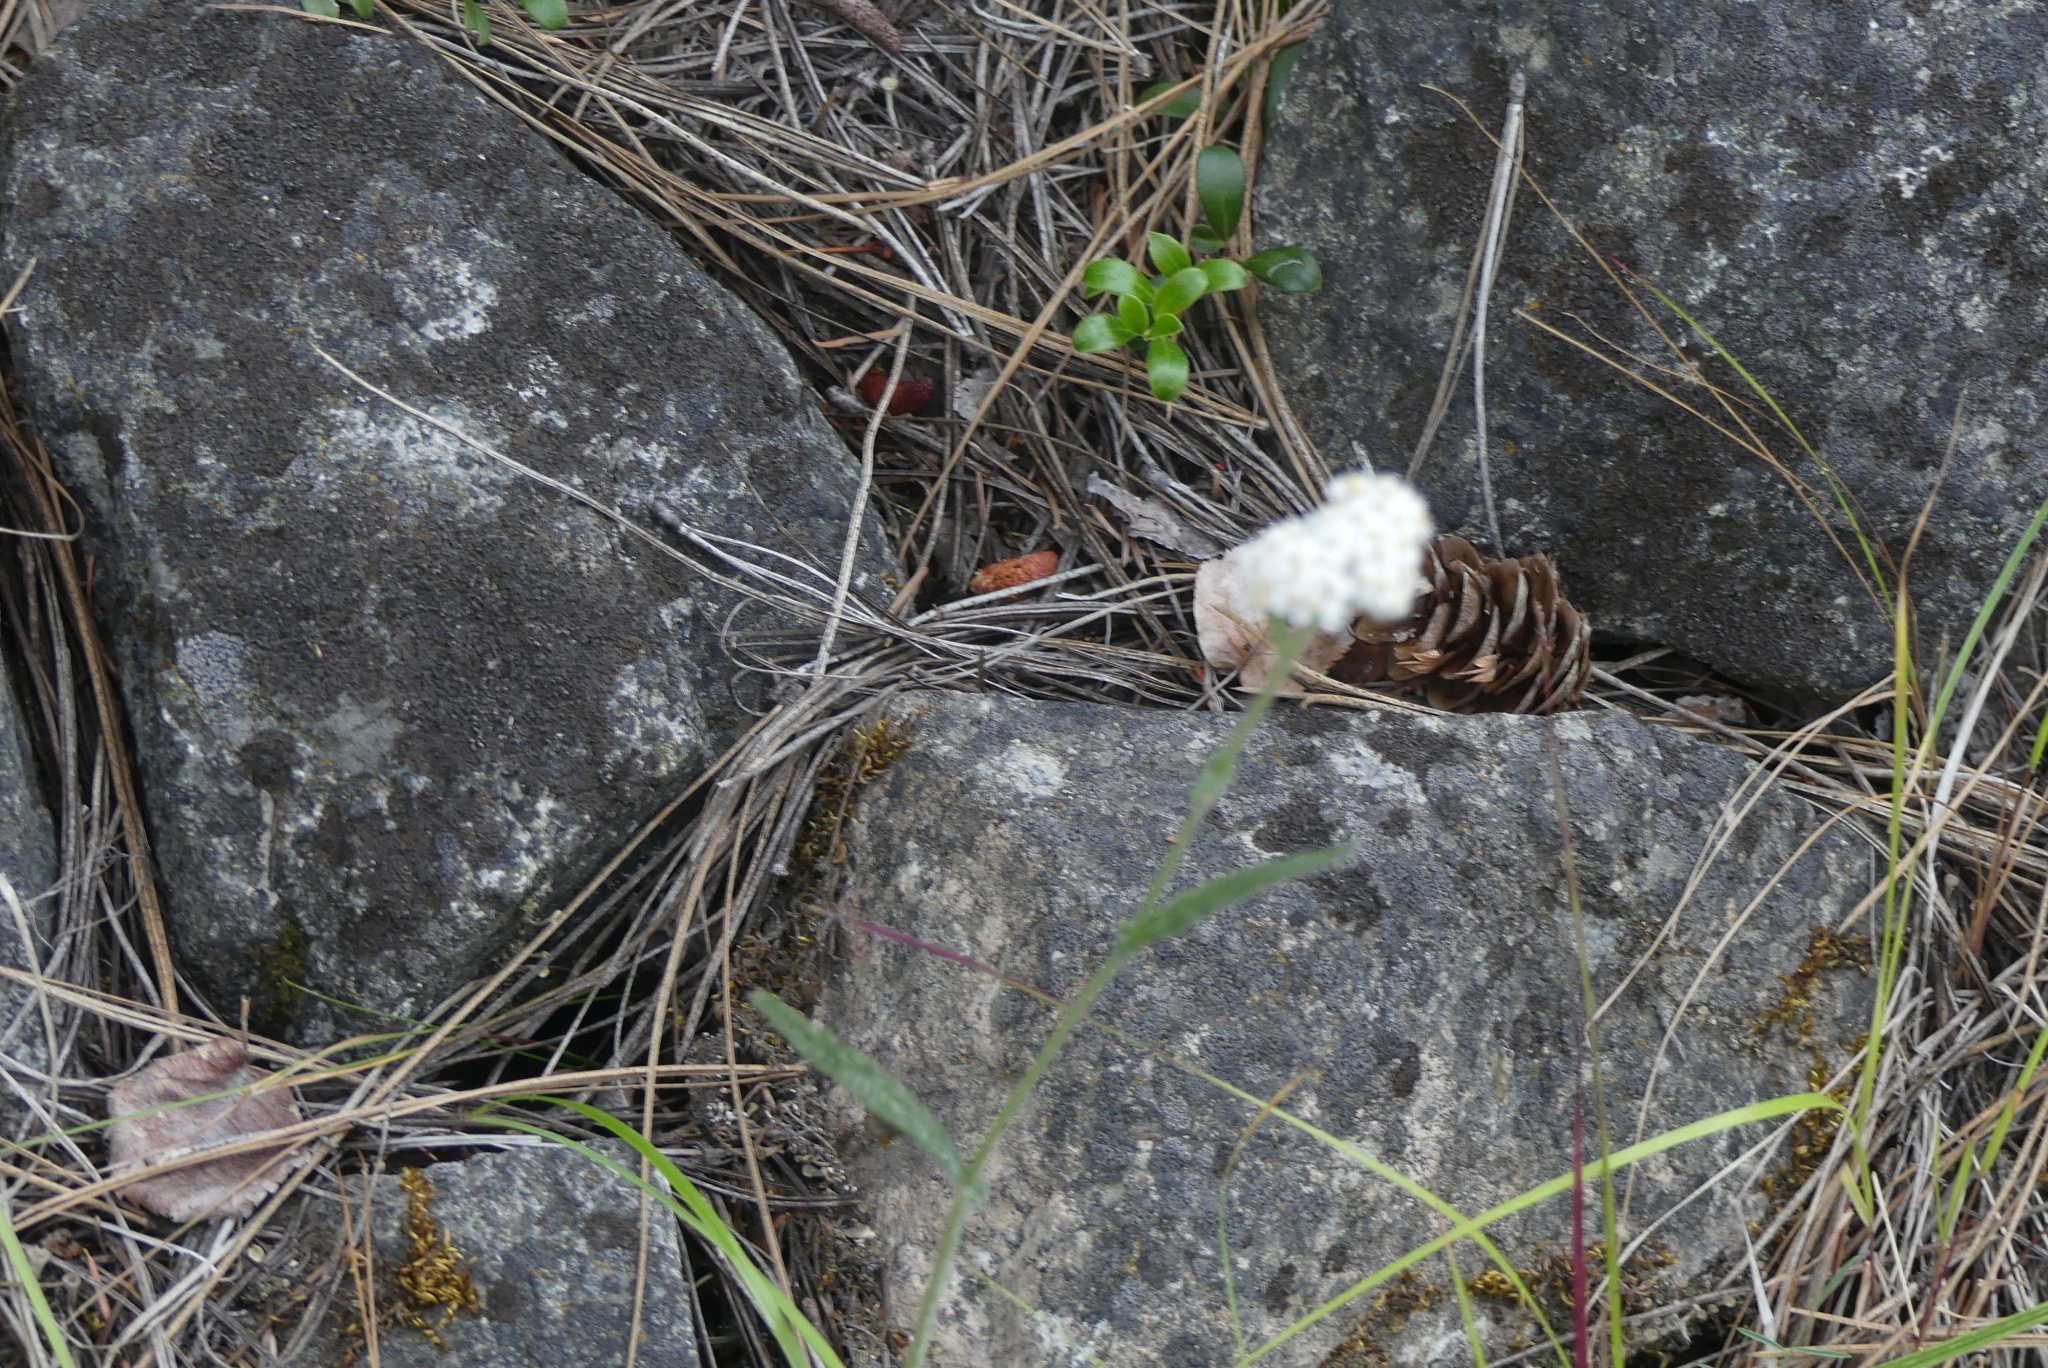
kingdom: Plantae
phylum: Tracheophyta
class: Magnoliopsida
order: Asterales
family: Asteraceae
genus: Achillea
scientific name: Achillea millefolium
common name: Yarrow
